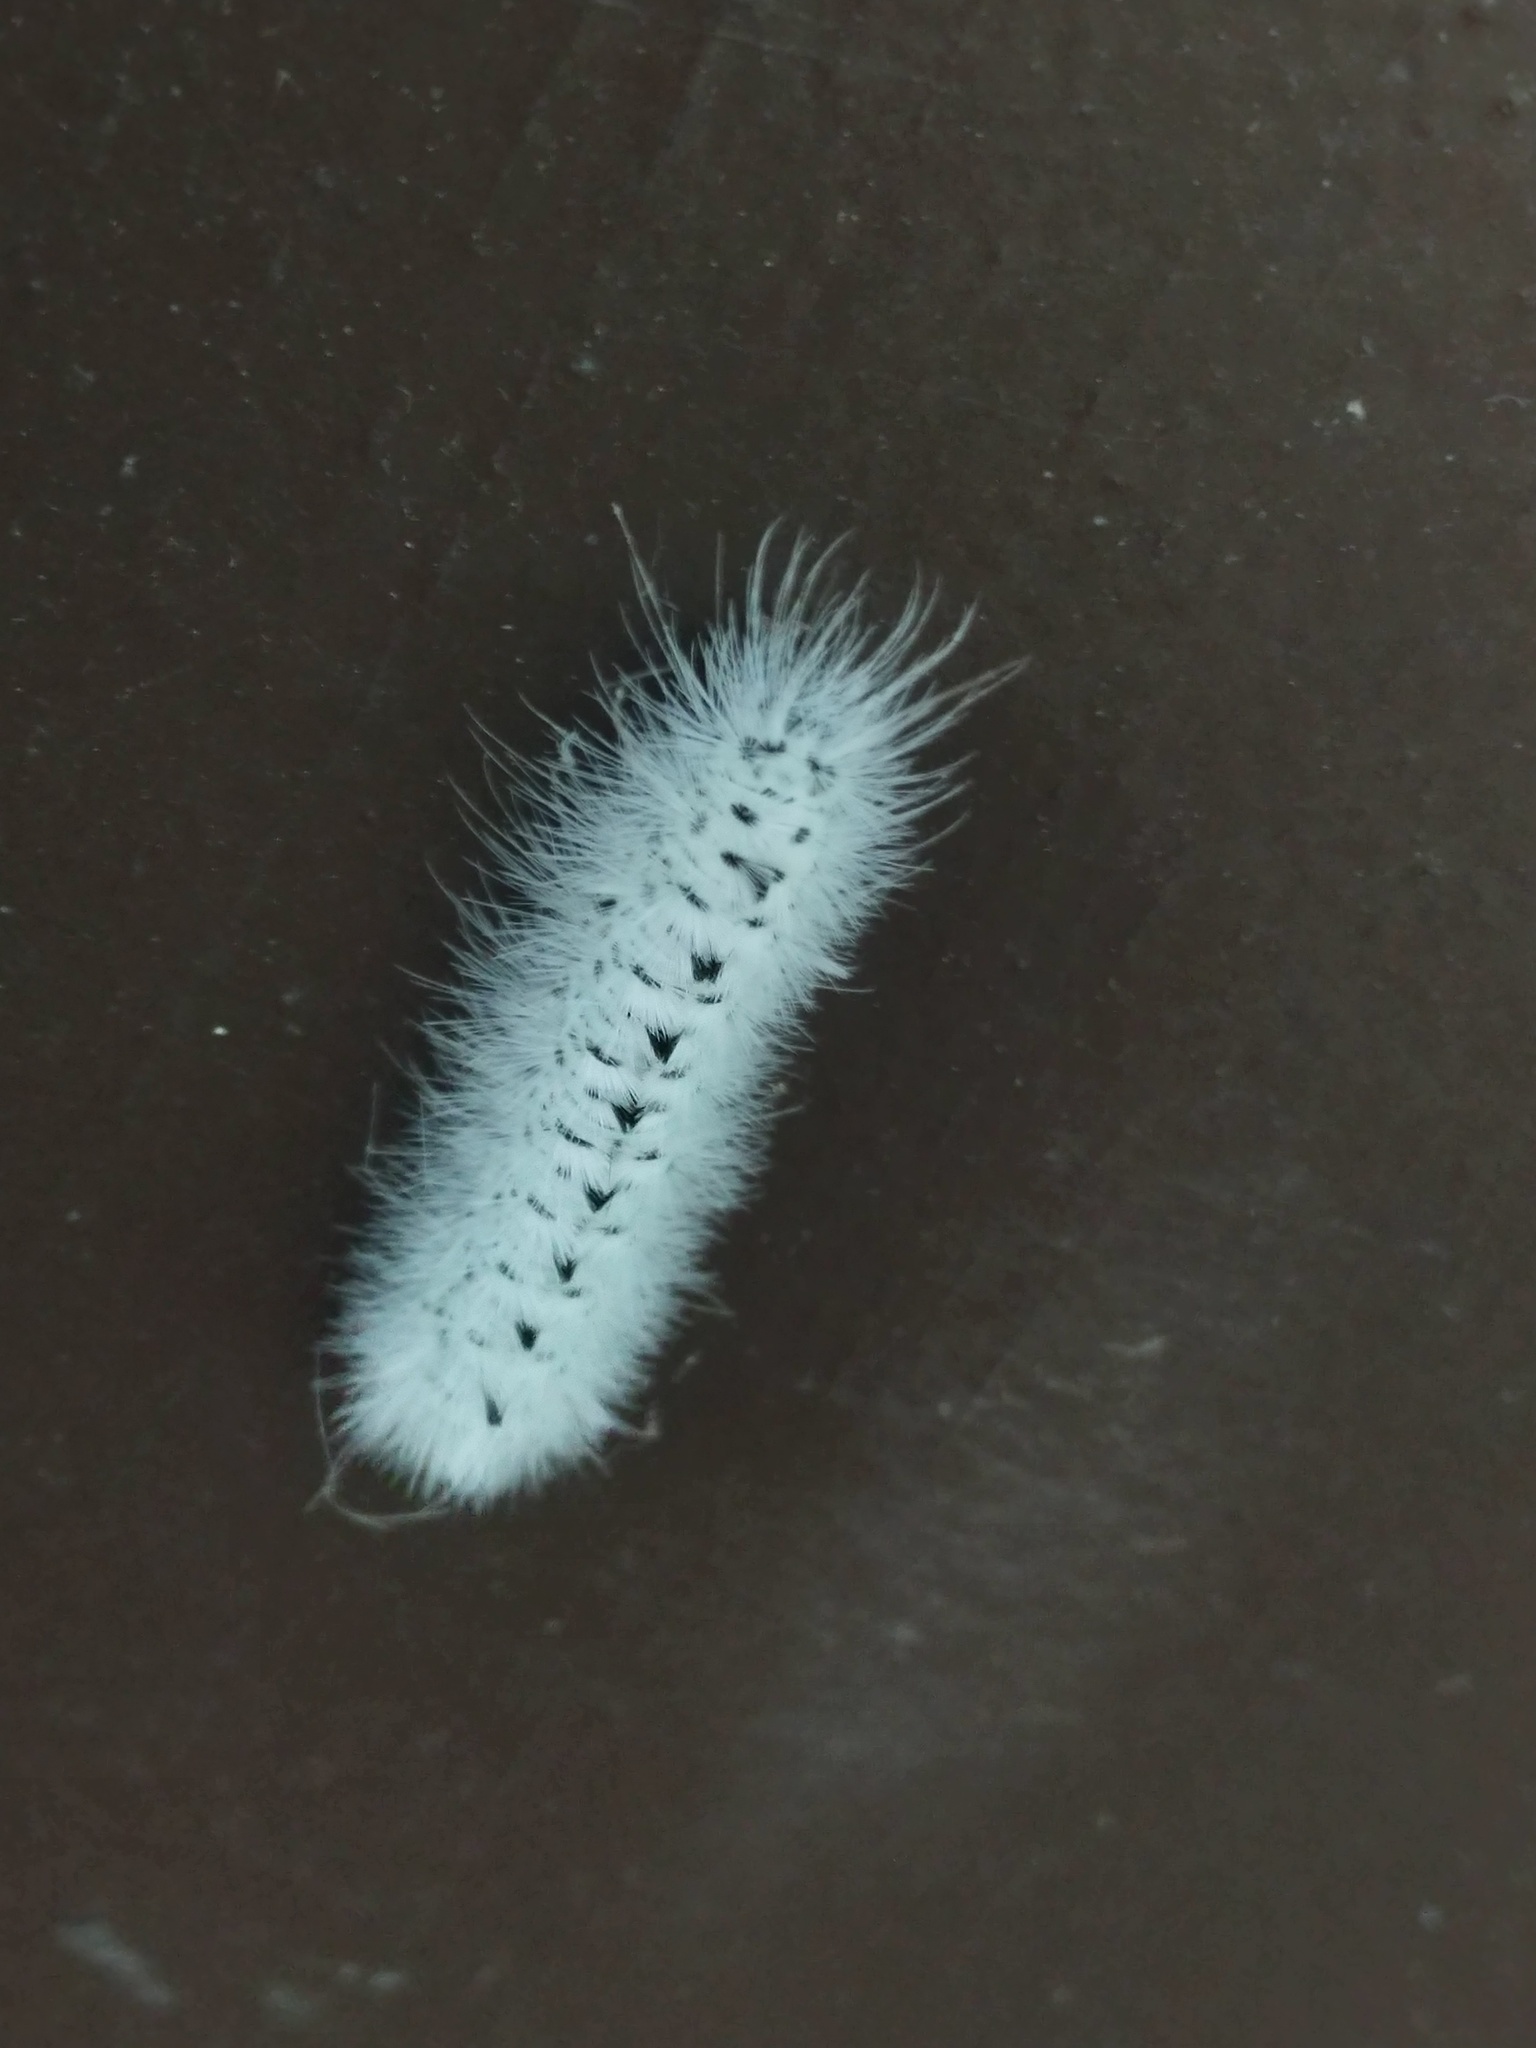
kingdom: Animalia
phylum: Arthropoda
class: Insecta
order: Lepidoptera
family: Erebidae
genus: Lophocampa
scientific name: Lophocampa caryae
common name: Hickory tussock moth
